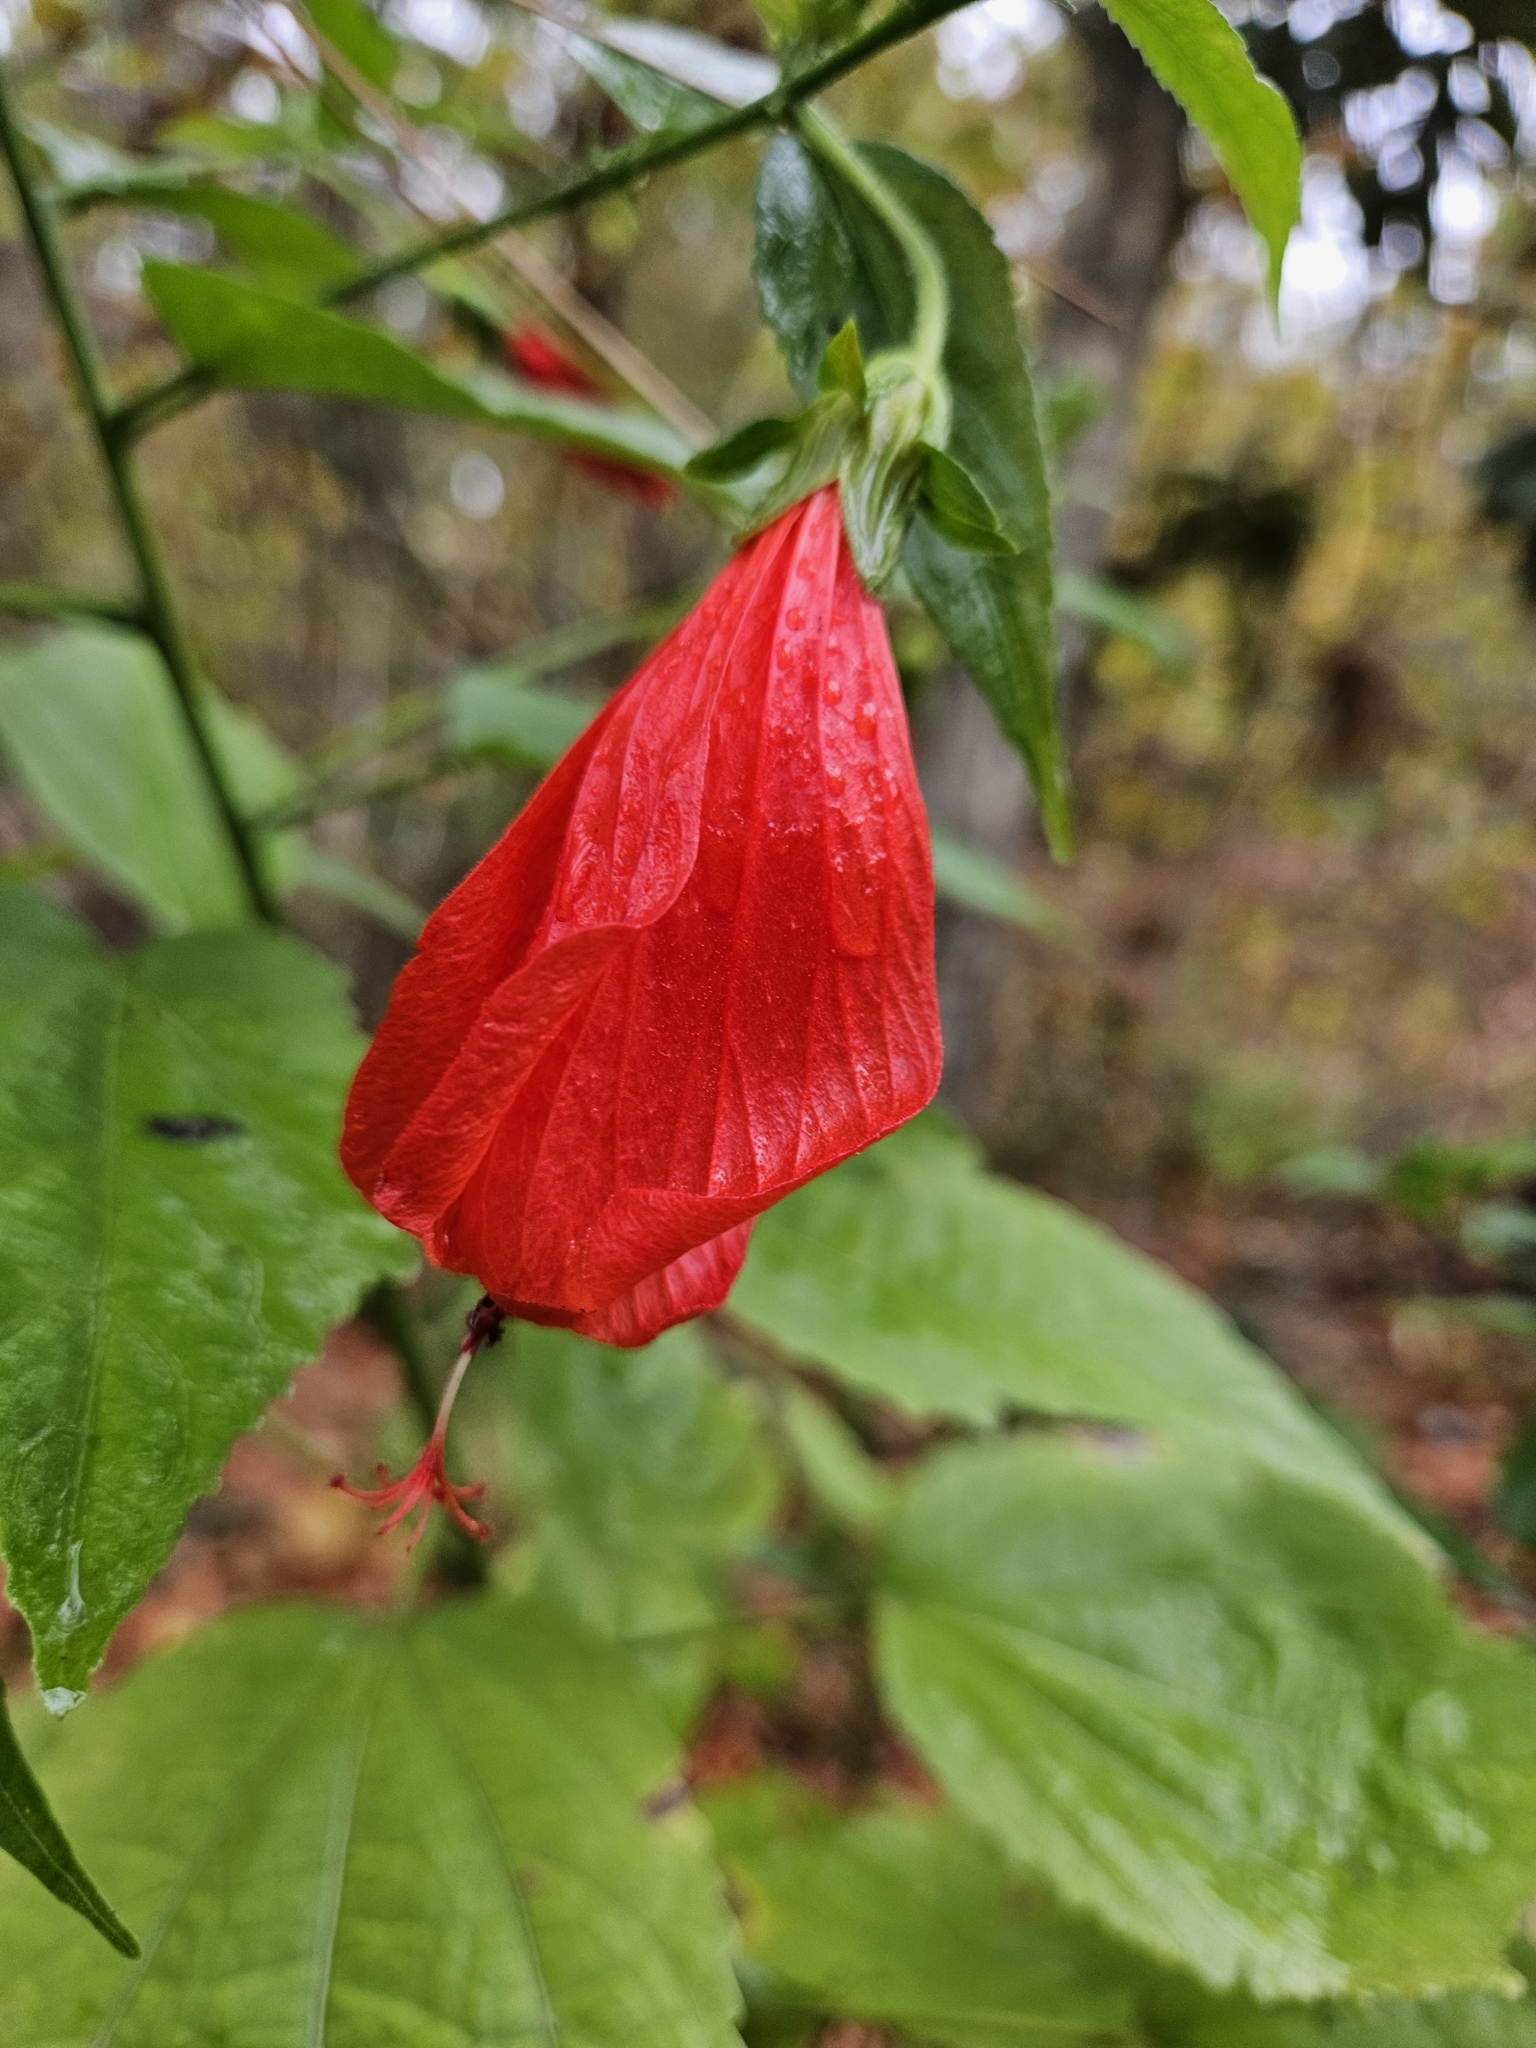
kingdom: Plantae
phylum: Tracheophyta
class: Magnoliopsida
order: Malvales
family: Malvaceae
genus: Malvaviscus
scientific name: Malvaviscus penduliflorus
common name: Mazapan
